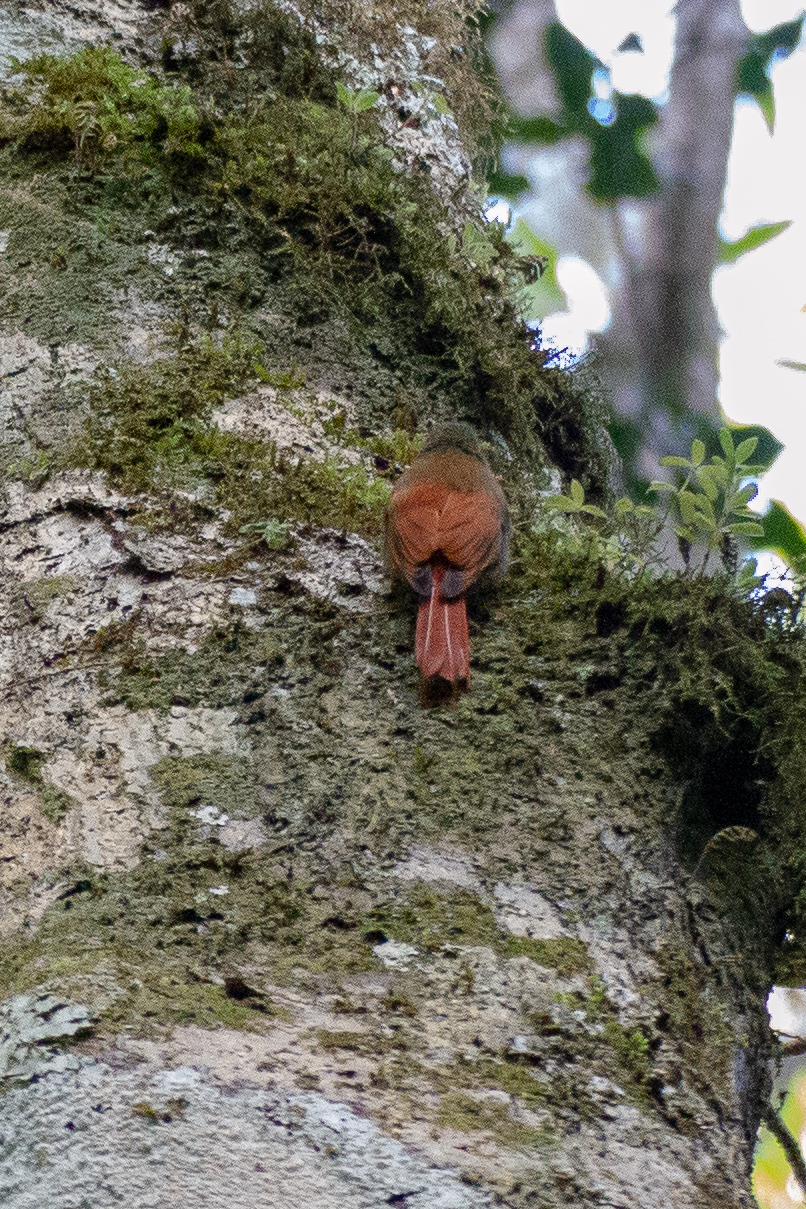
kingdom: Animalia
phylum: Chordata
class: Aves
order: Passeriformes
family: Furnariidae
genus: Sittasomus
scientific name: Sittasomus griseicapillus
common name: Olivaceous woodcreeper
